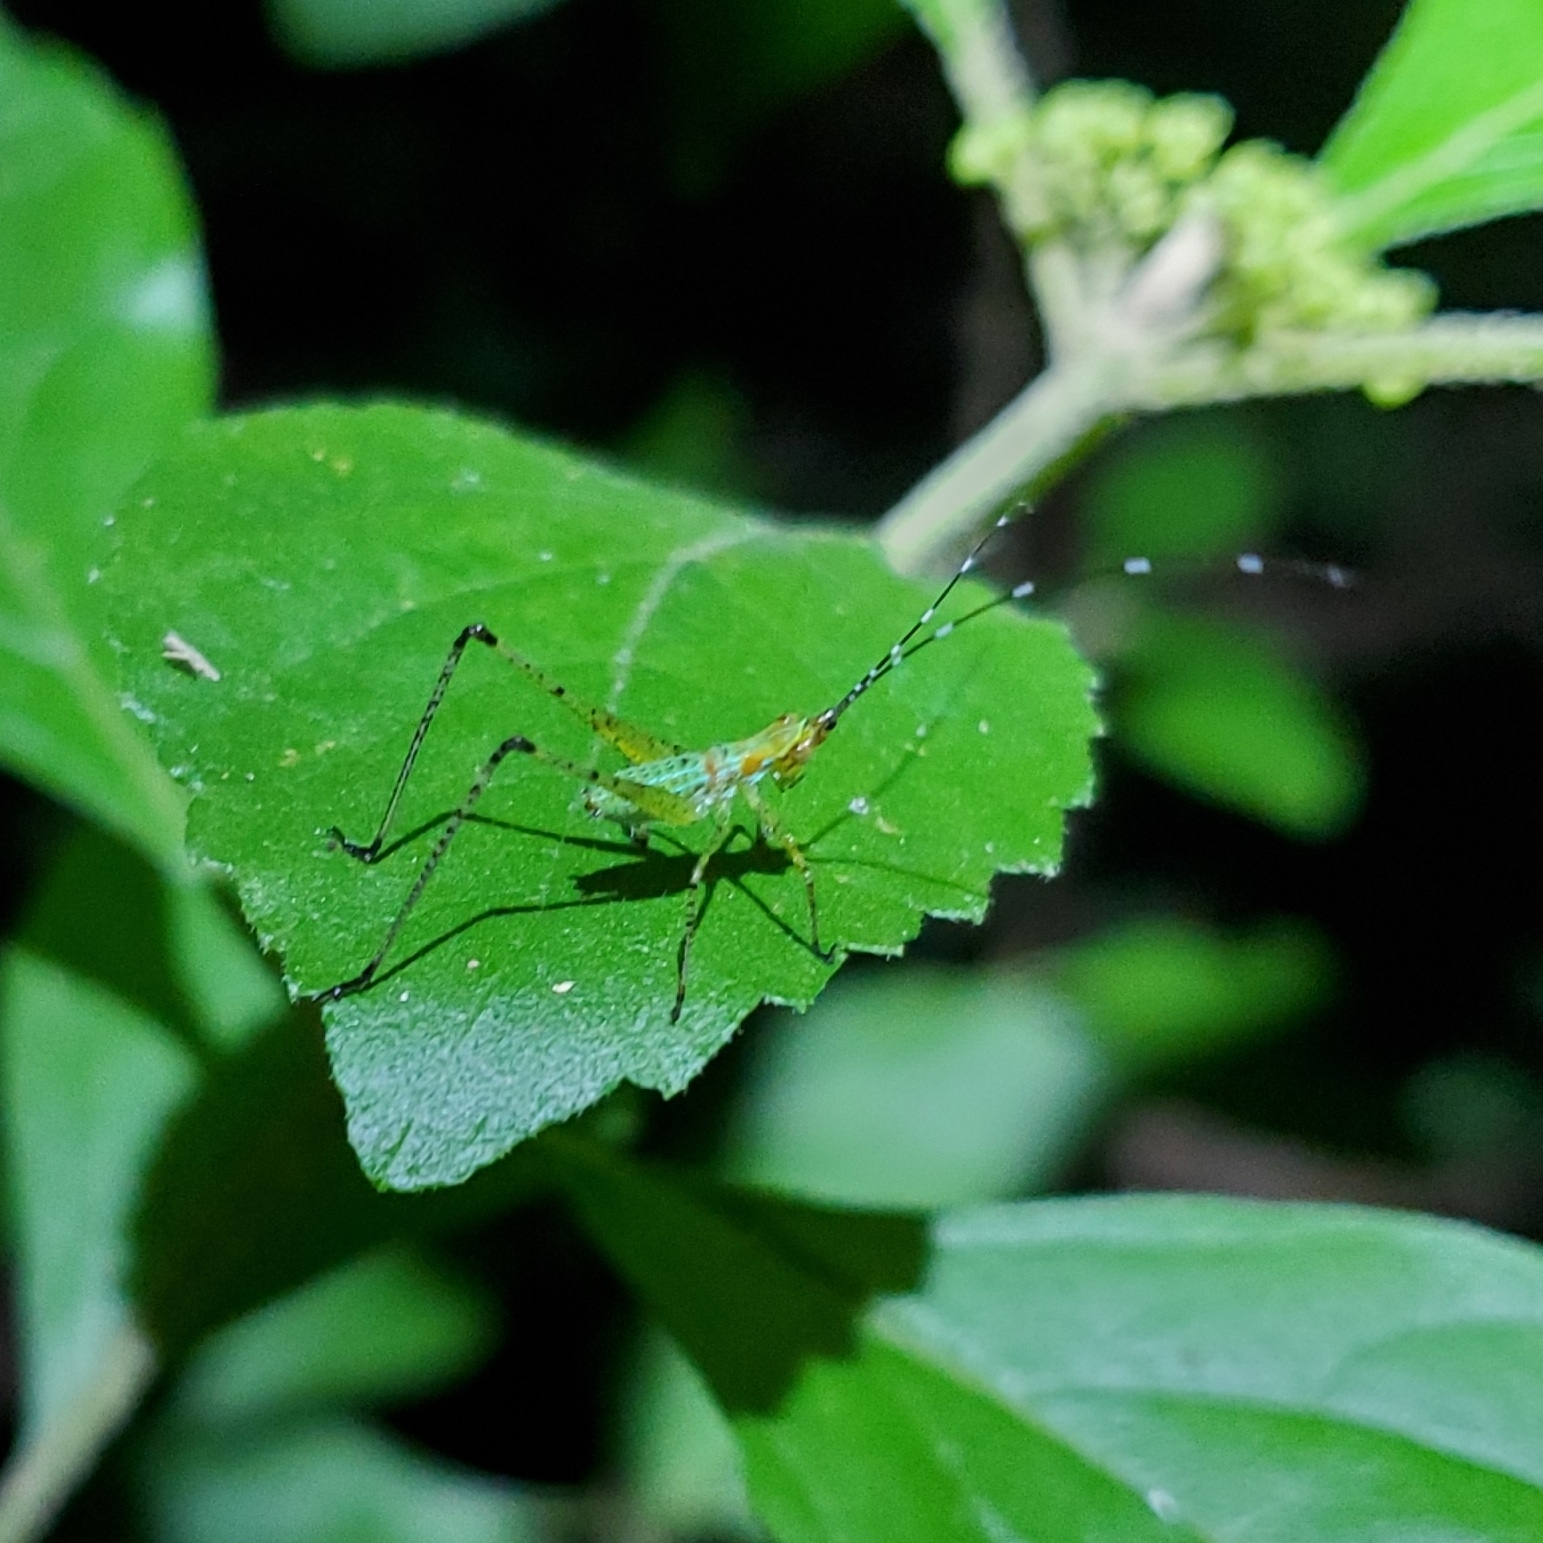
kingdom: Animalia
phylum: Arthropoda
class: Insecta
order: Orthoptera
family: Tettigoniidae
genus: Scudderia
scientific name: Scudderia furcata
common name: Fork-tailed bush katydid
